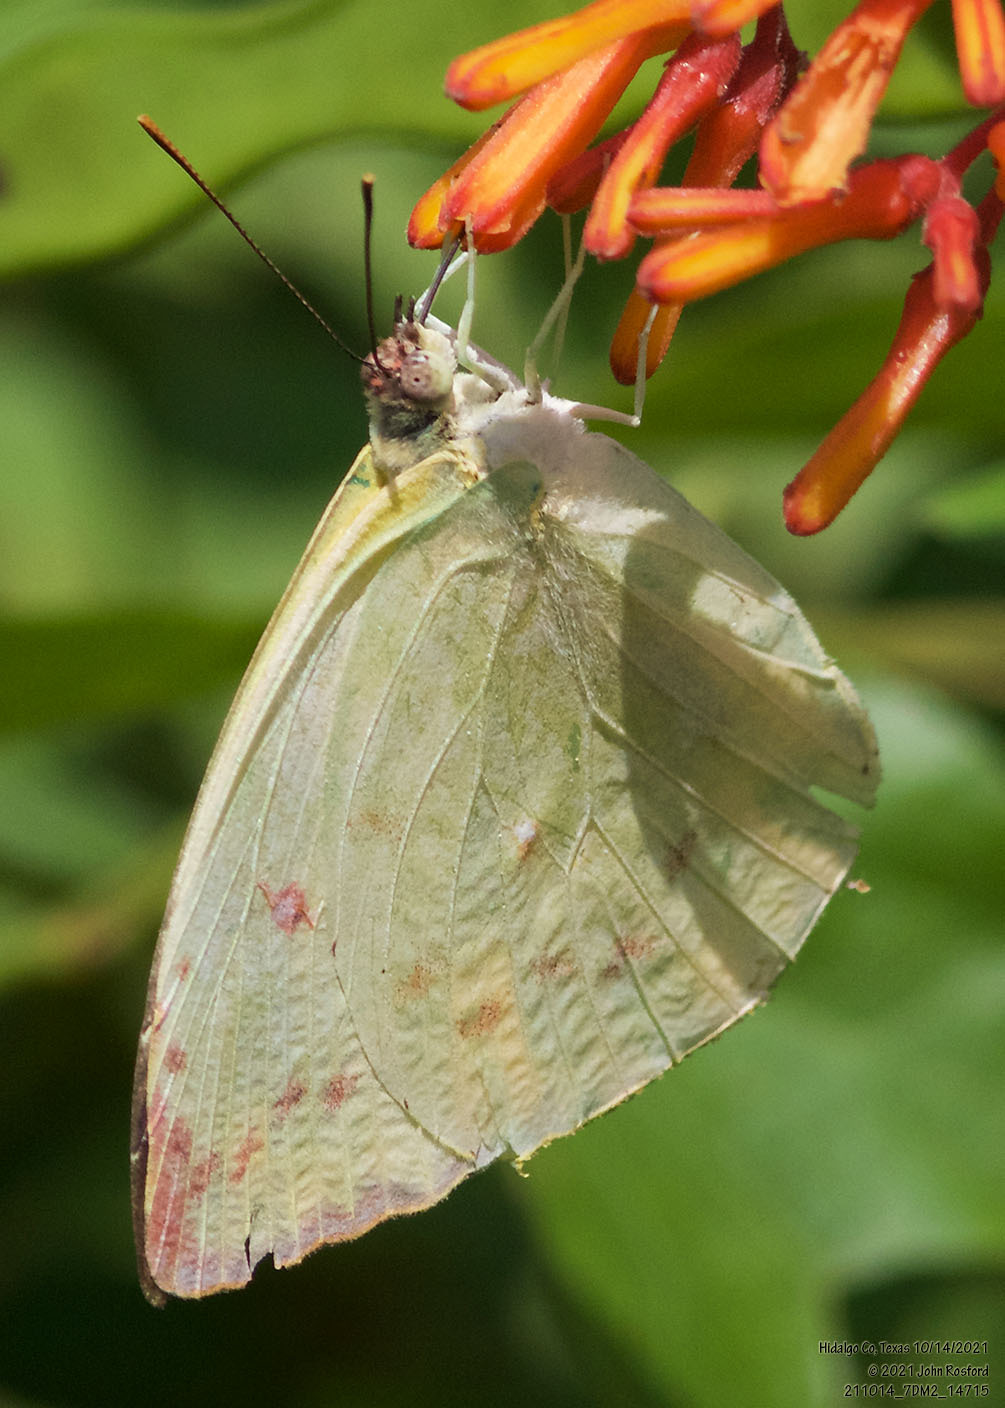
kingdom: Animalia
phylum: Arthropoda
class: Insecta
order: Lepidoptera
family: Pieridae
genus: Aphrissa
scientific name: Aphrissa statira
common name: Statira sulphur
